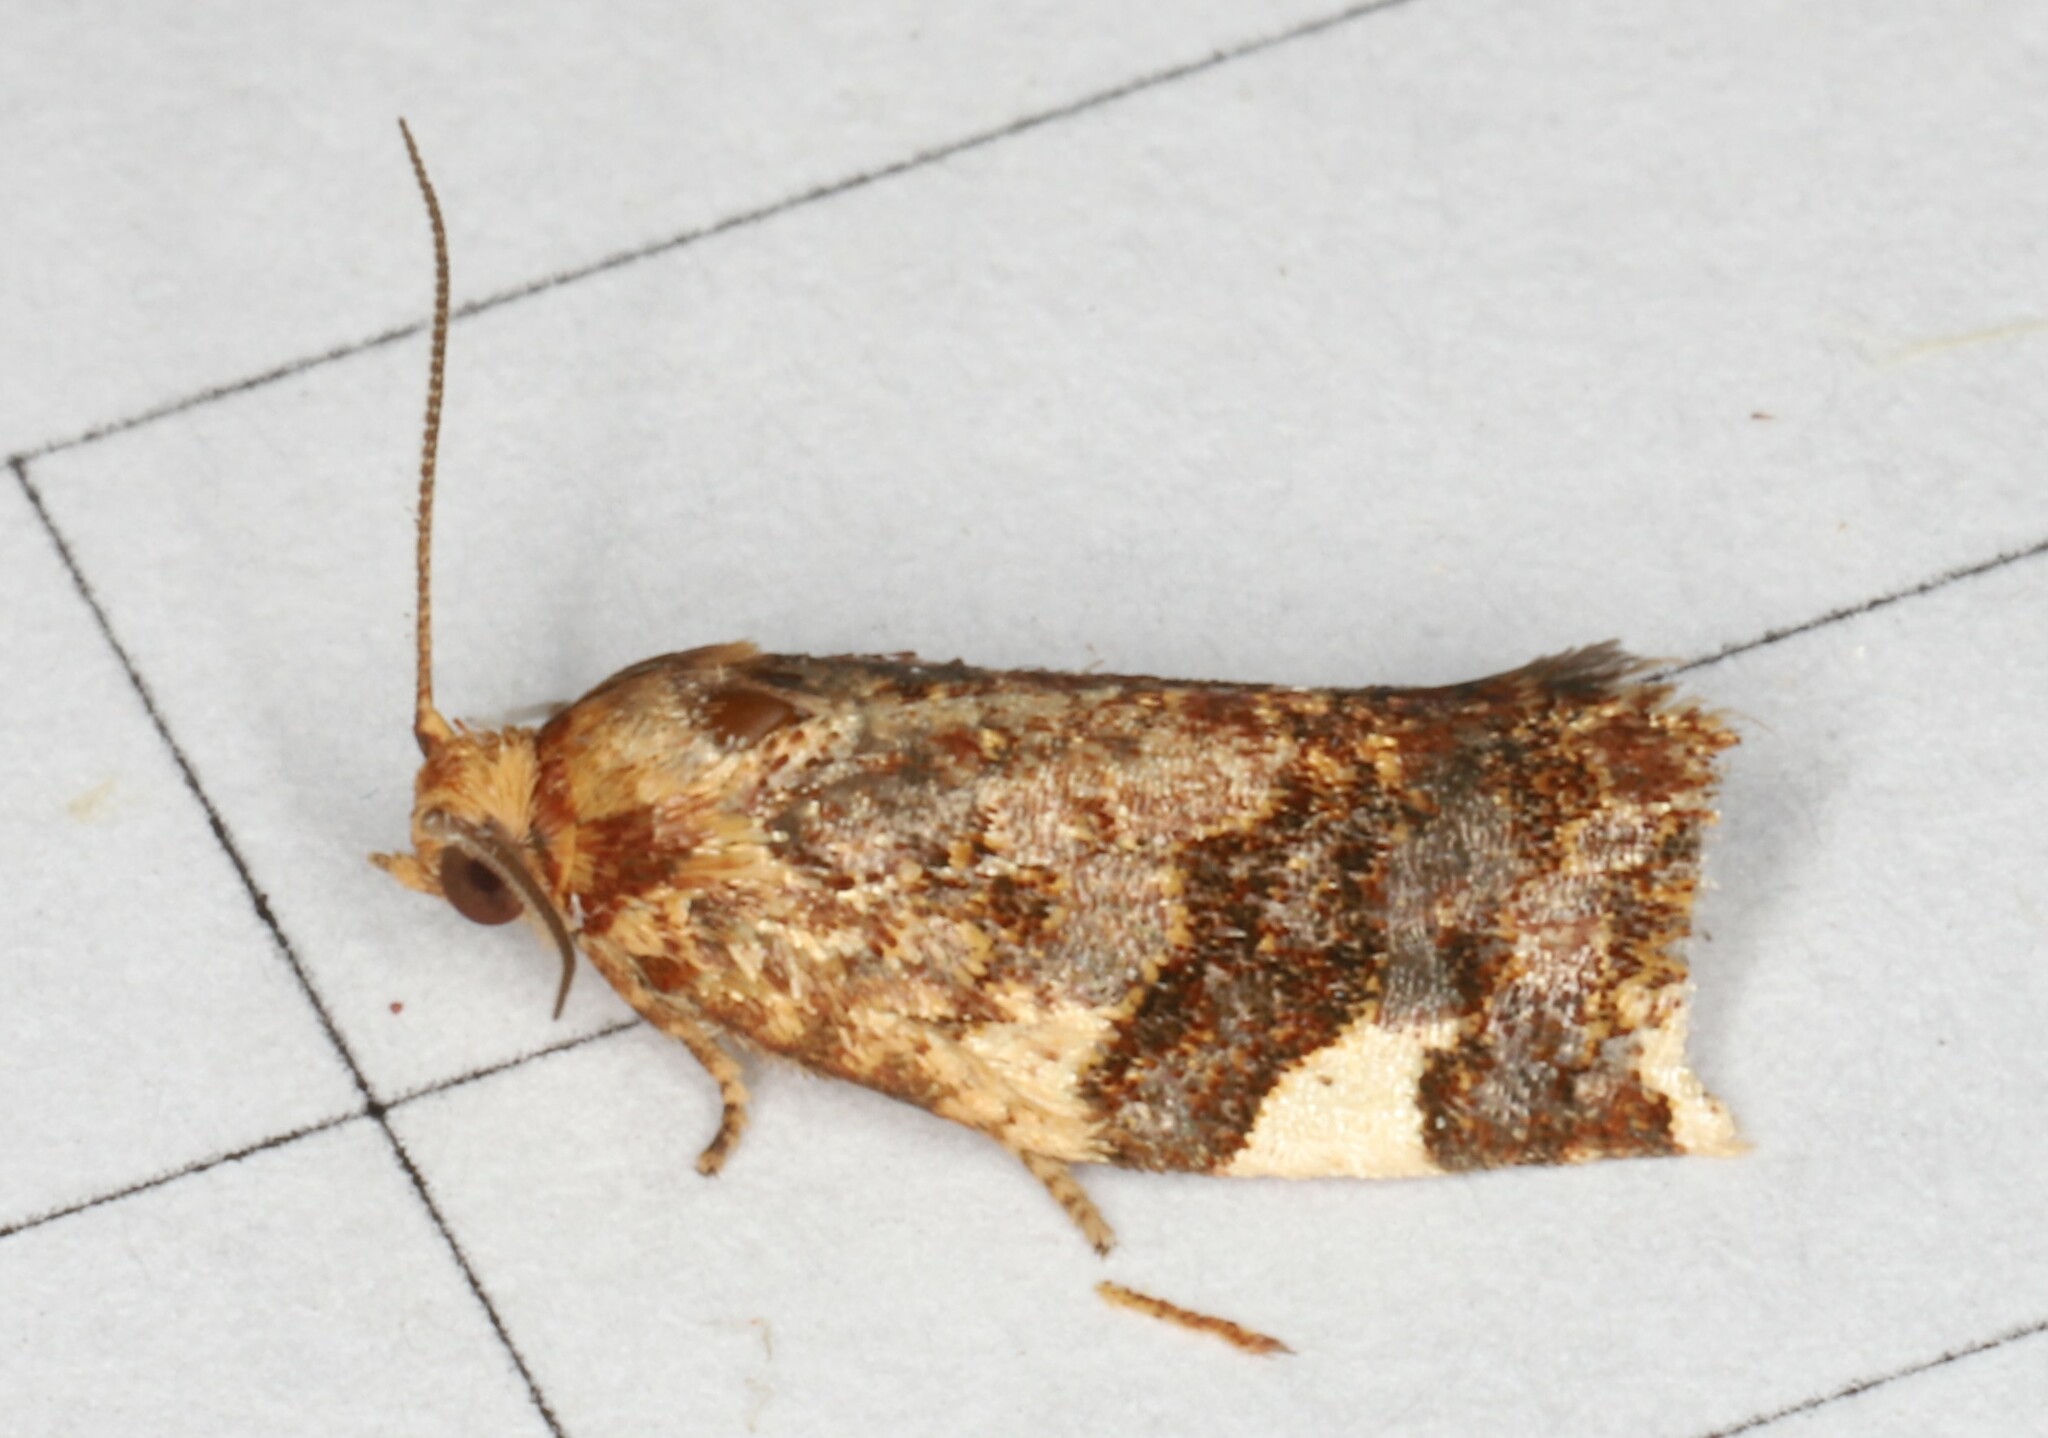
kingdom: Animalia
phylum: Arthropoda
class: Insecta
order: Lepidoptera
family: Tortricidae
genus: Clepsis
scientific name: Clepsis persicana
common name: White triangle tortrix
